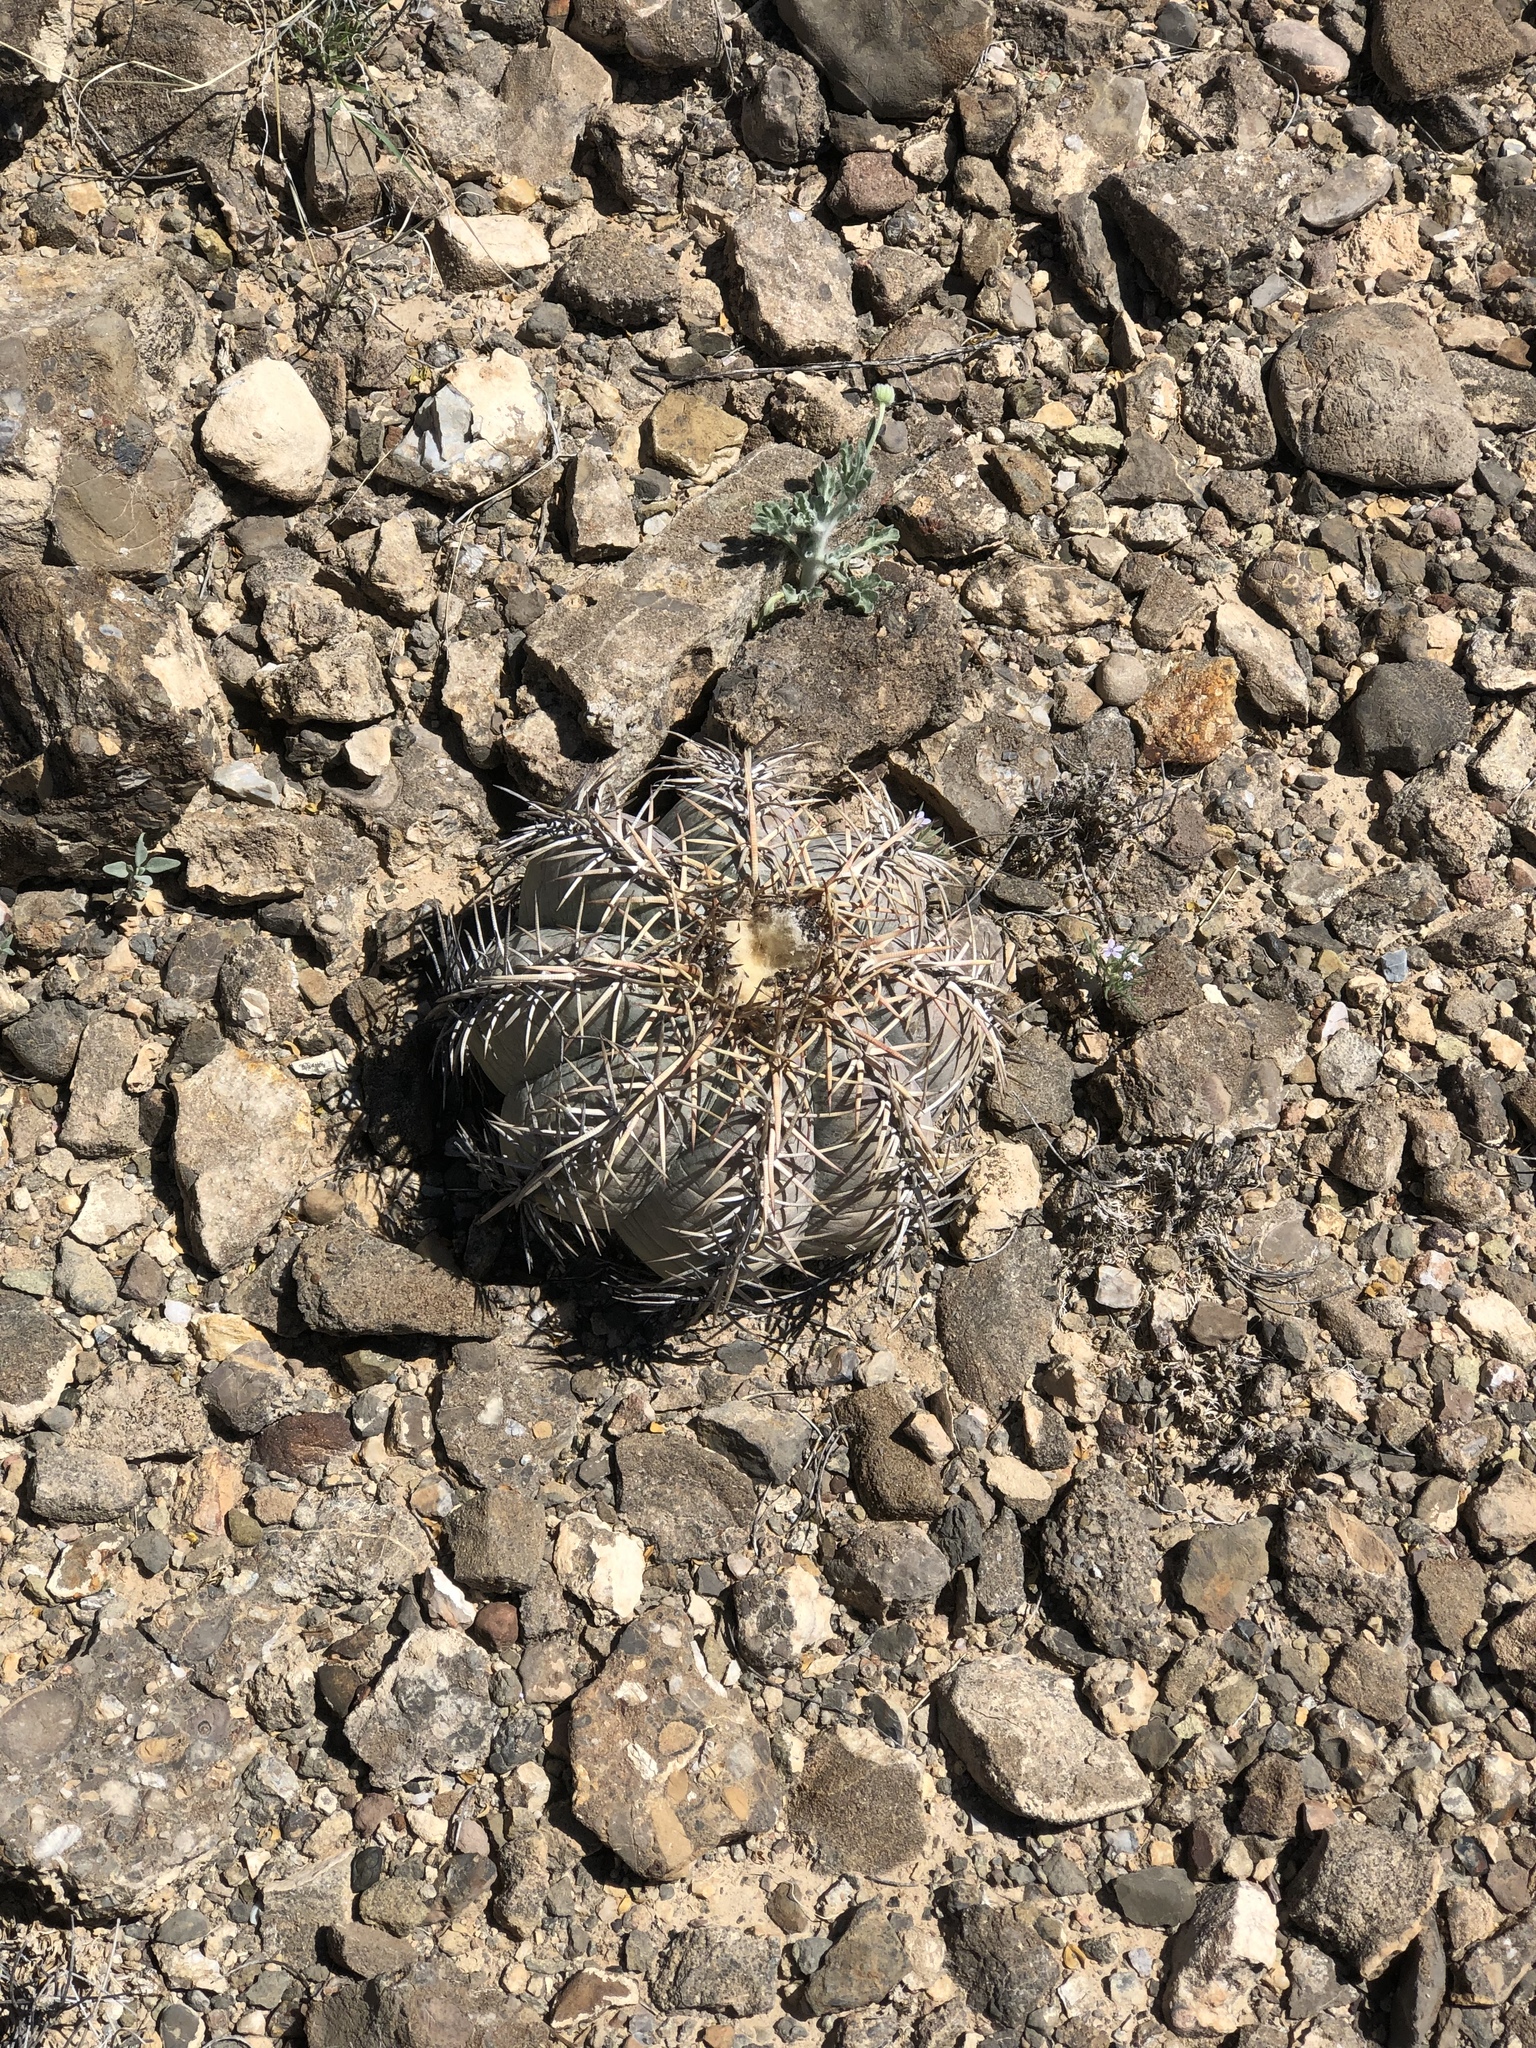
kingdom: Plantae
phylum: Tracheophyta
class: Magnoliopsida
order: Caryophyllales
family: Cactaceae
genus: Echinocactus
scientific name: Echinocactus horizonthalonius
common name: Devilshead
